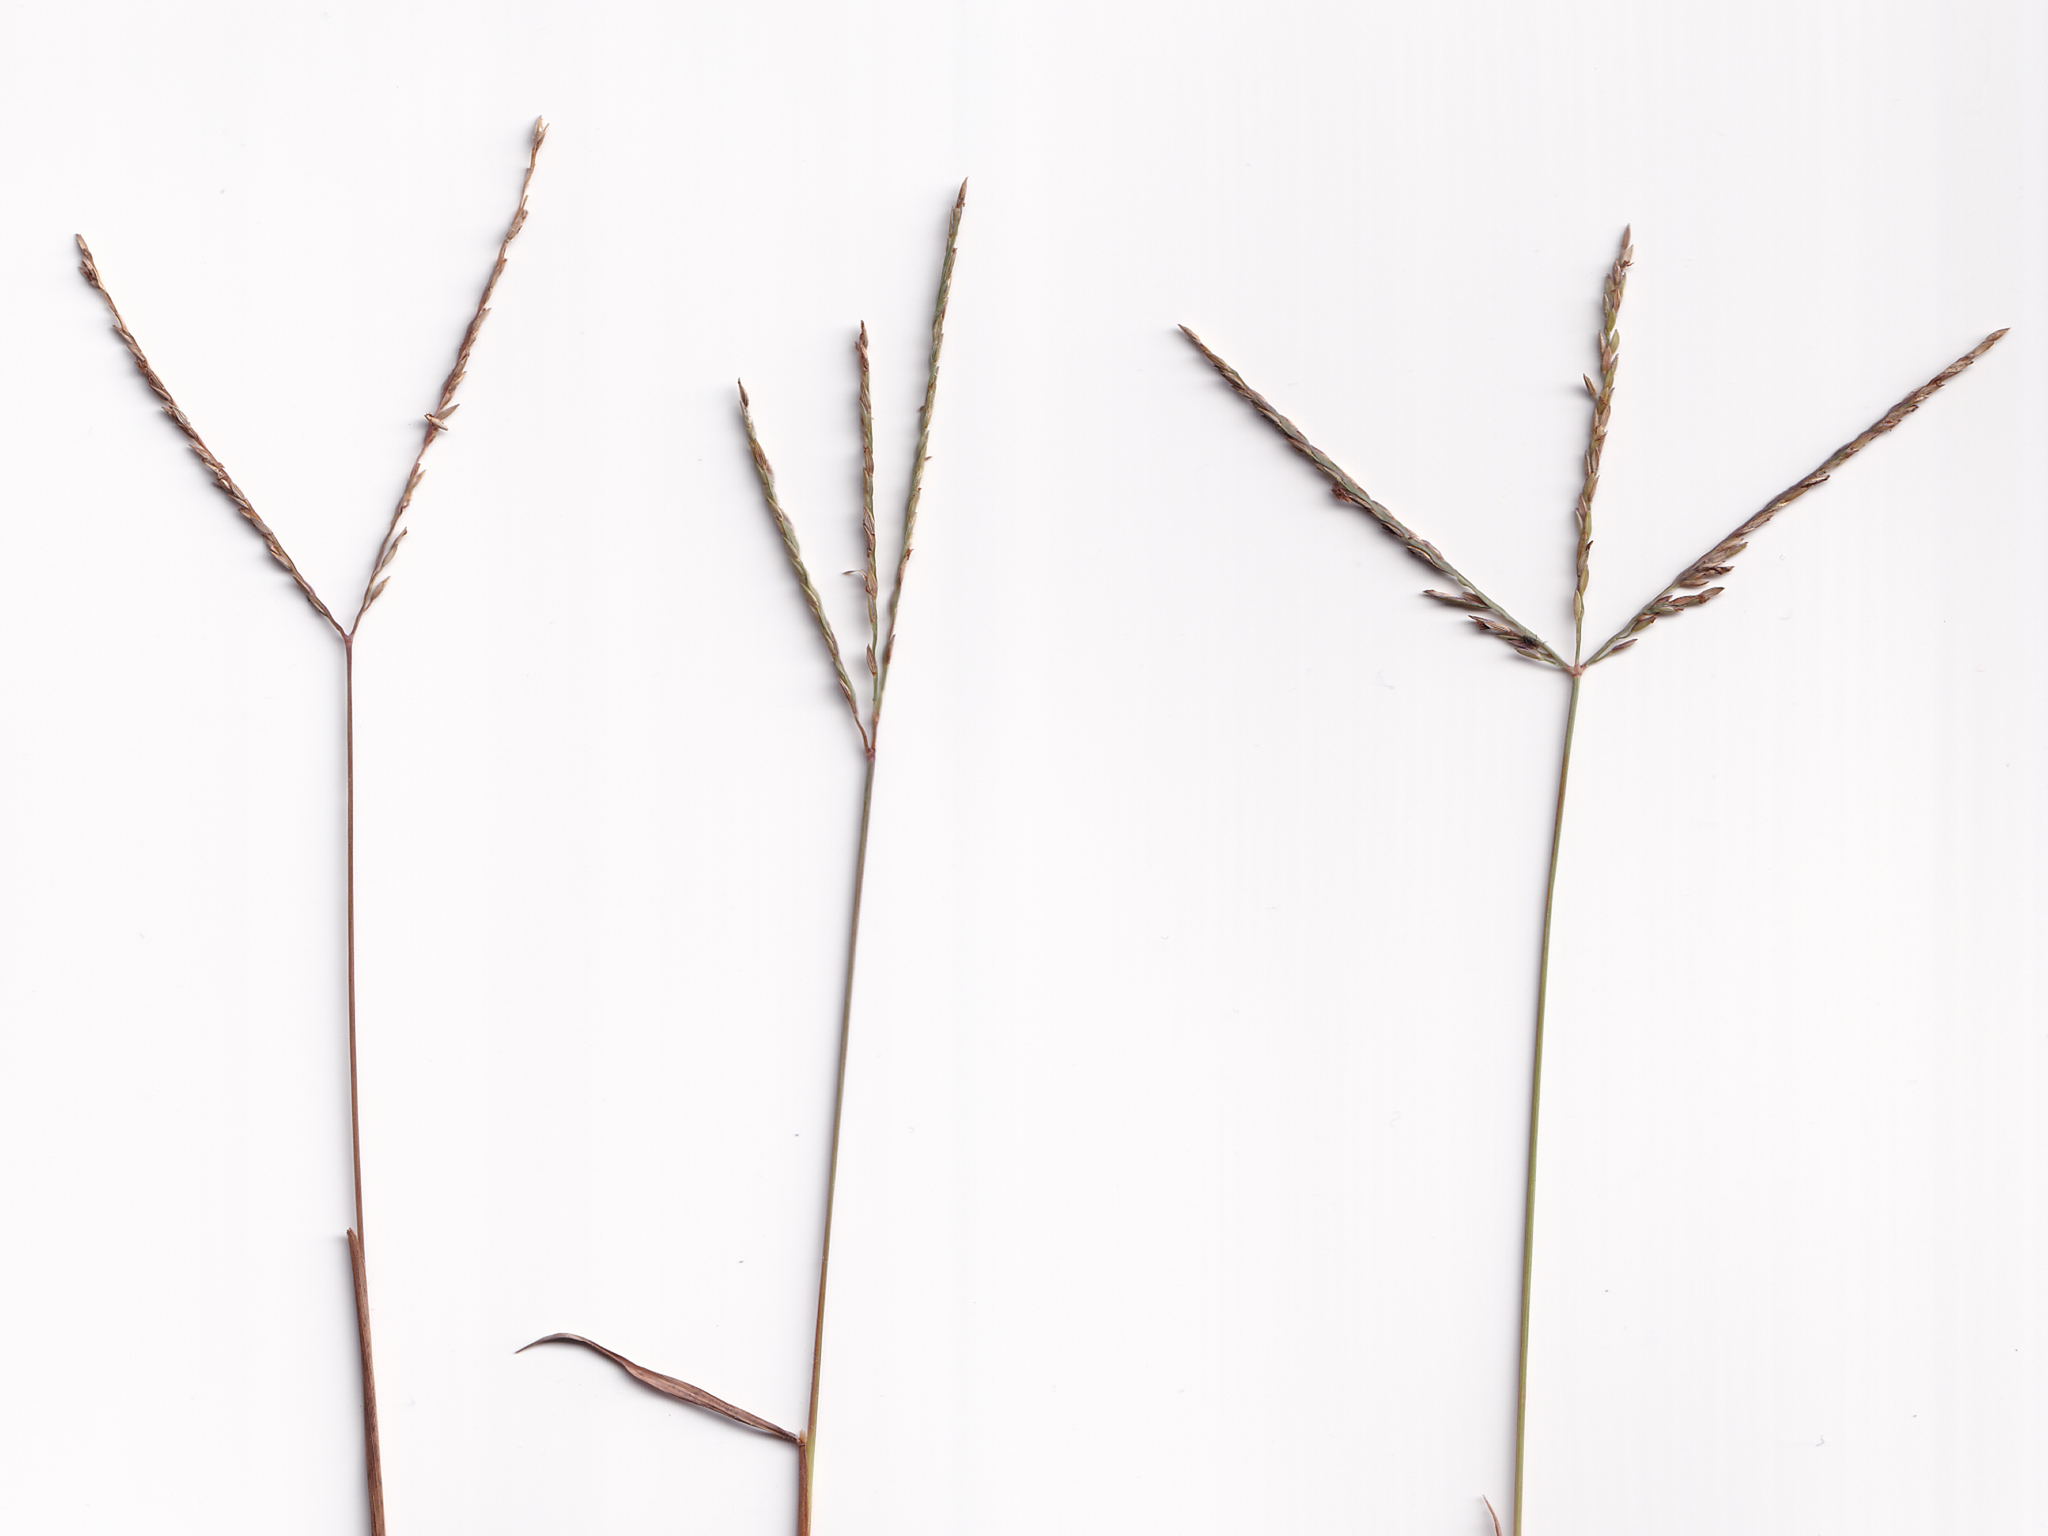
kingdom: Plantae
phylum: Tracheophyta
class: Liliopsida
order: Poales
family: Poaceae
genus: Digitaria
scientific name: Digitaria didactyla
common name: Blue couch
